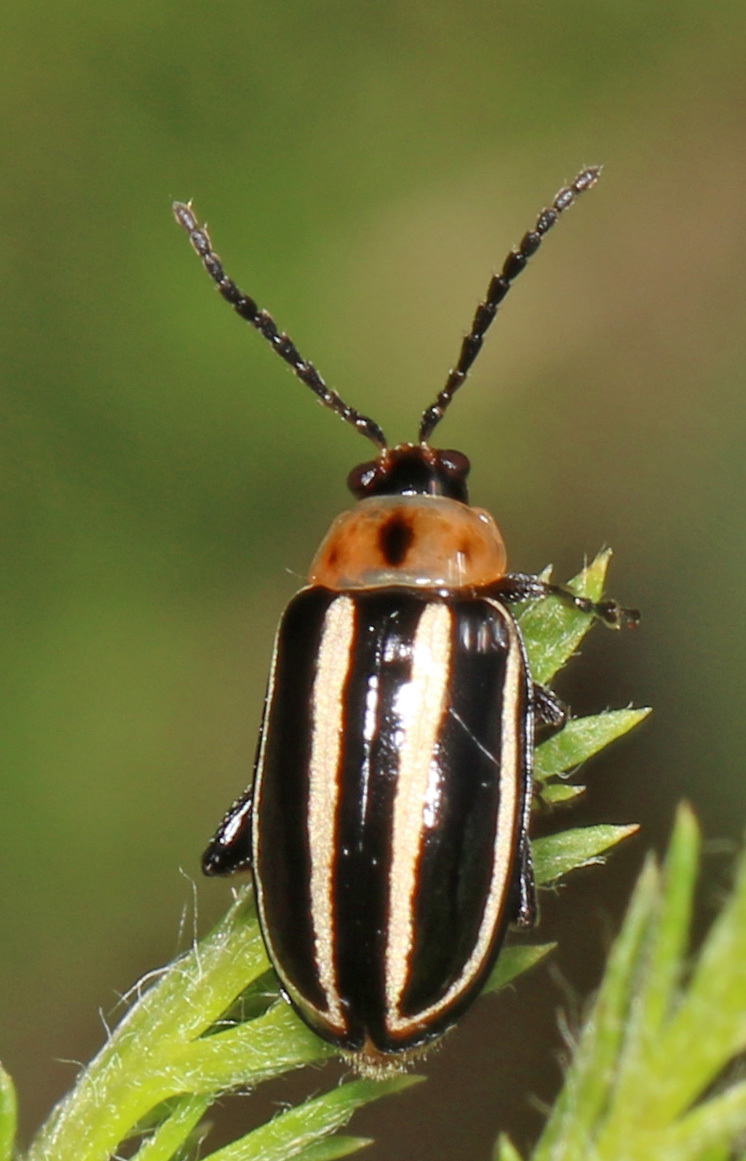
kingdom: Animalia
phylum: Arthropoda
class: Insecta
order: Coleoptera
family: Chrysomelidae
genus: Disonycha
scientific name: Disonycha glabrata
